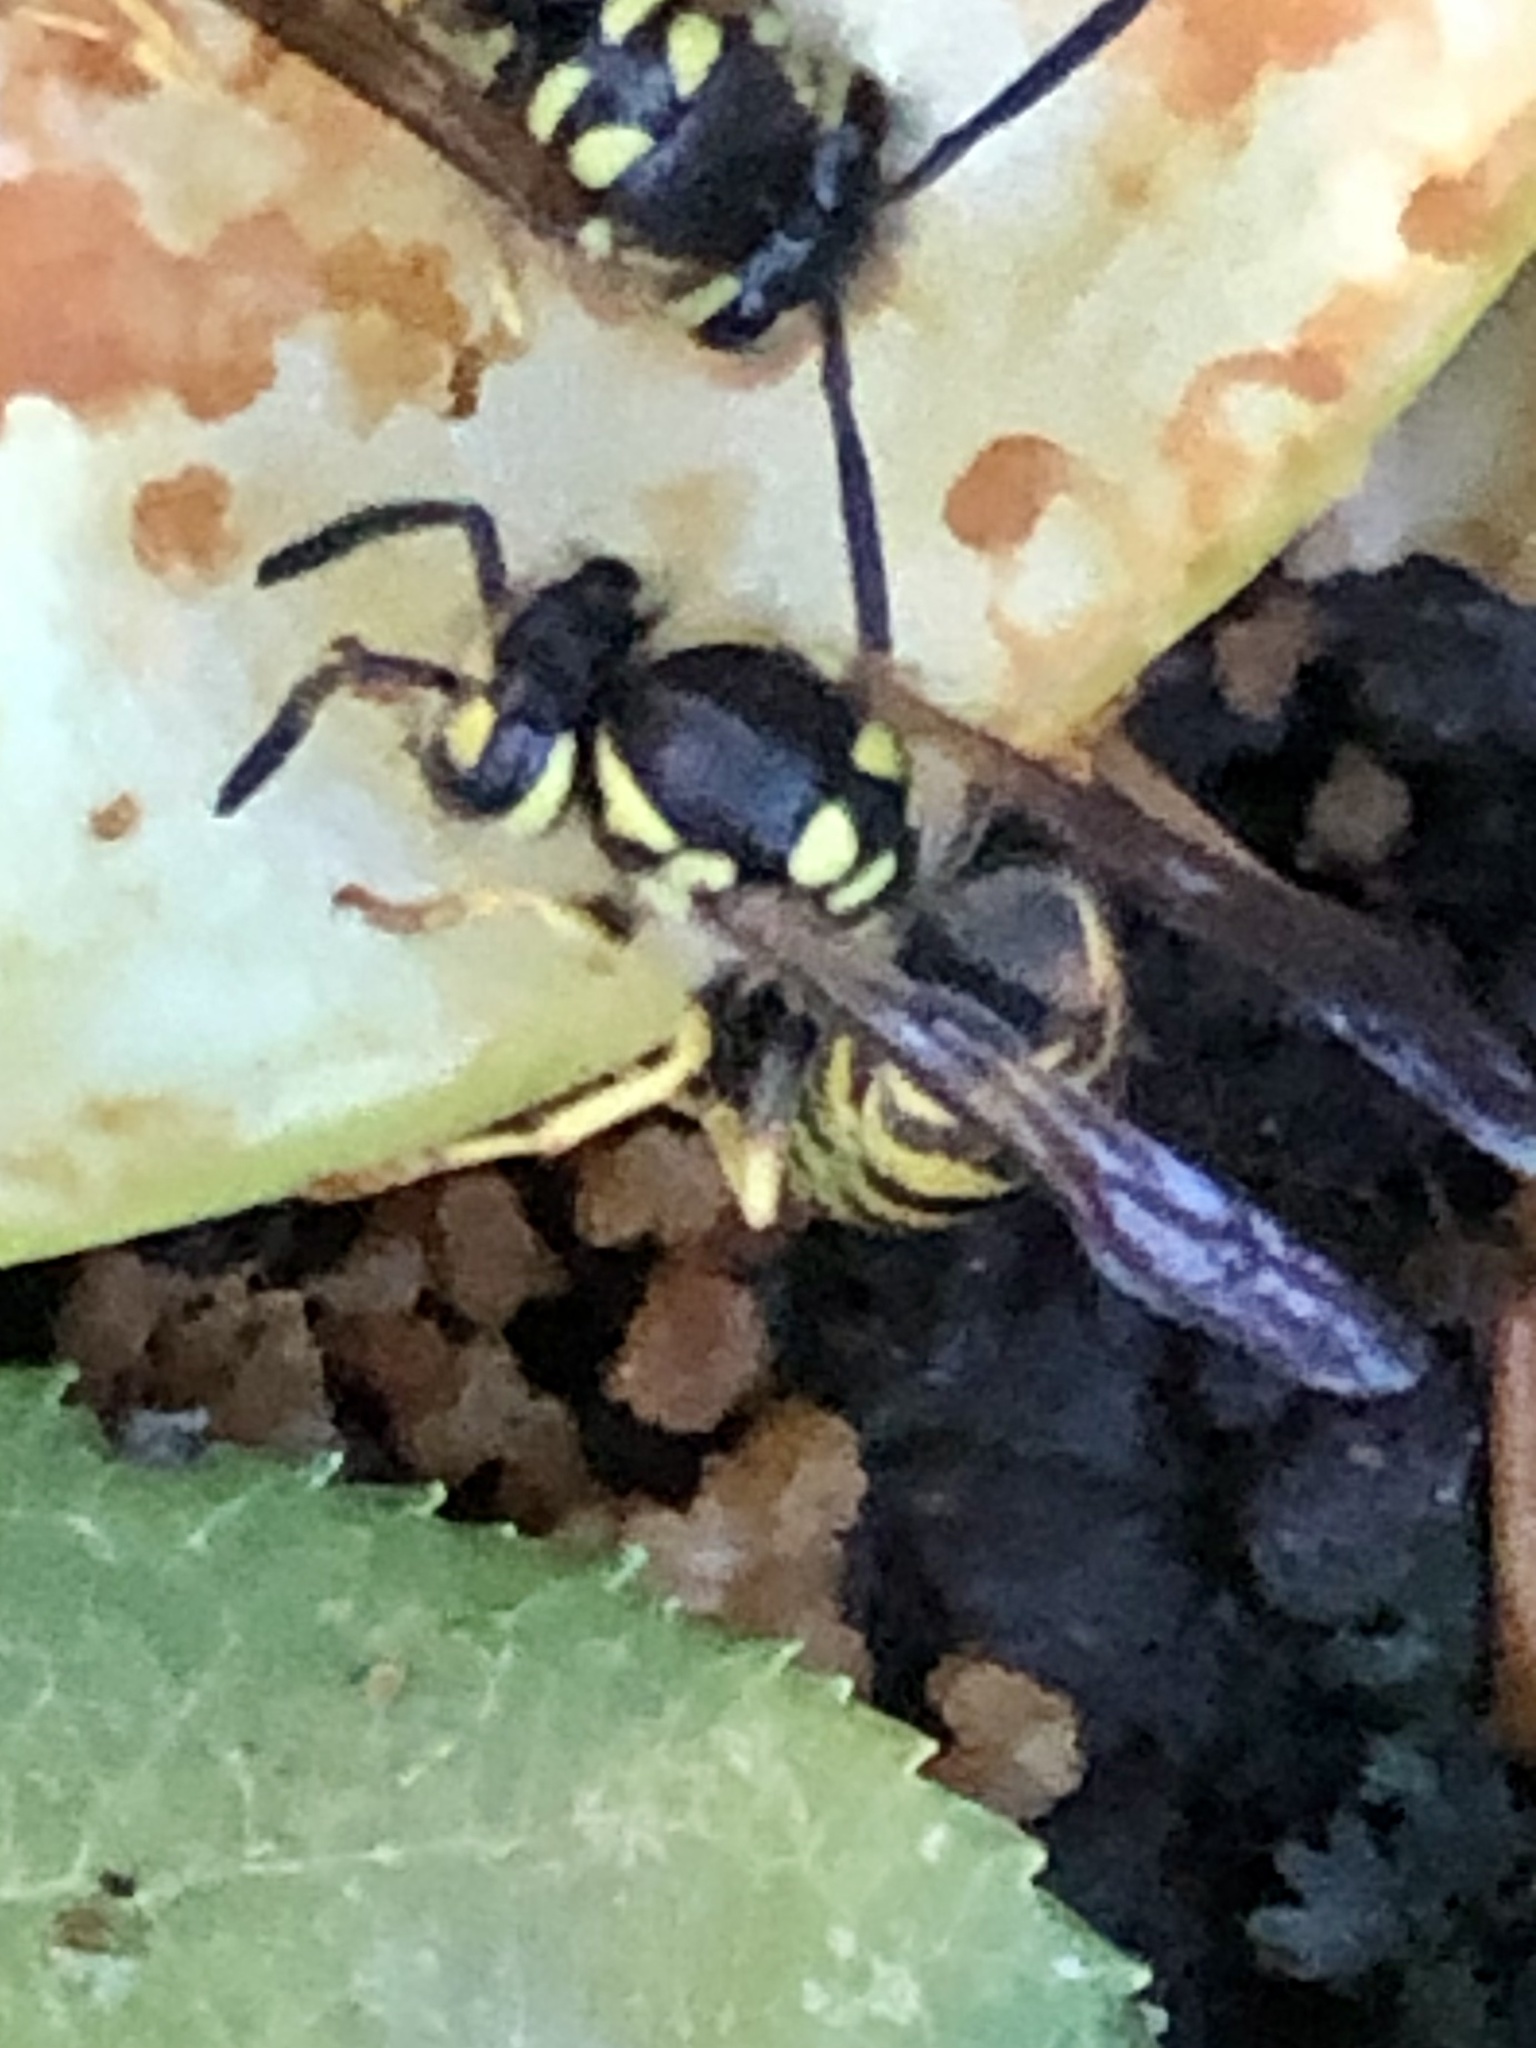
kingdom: Animalia
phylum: Arthropoda
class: Insecta
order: Hymenoptera
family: Vespidae
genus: Vespula
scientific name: Vespula germanica
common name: German wasp
